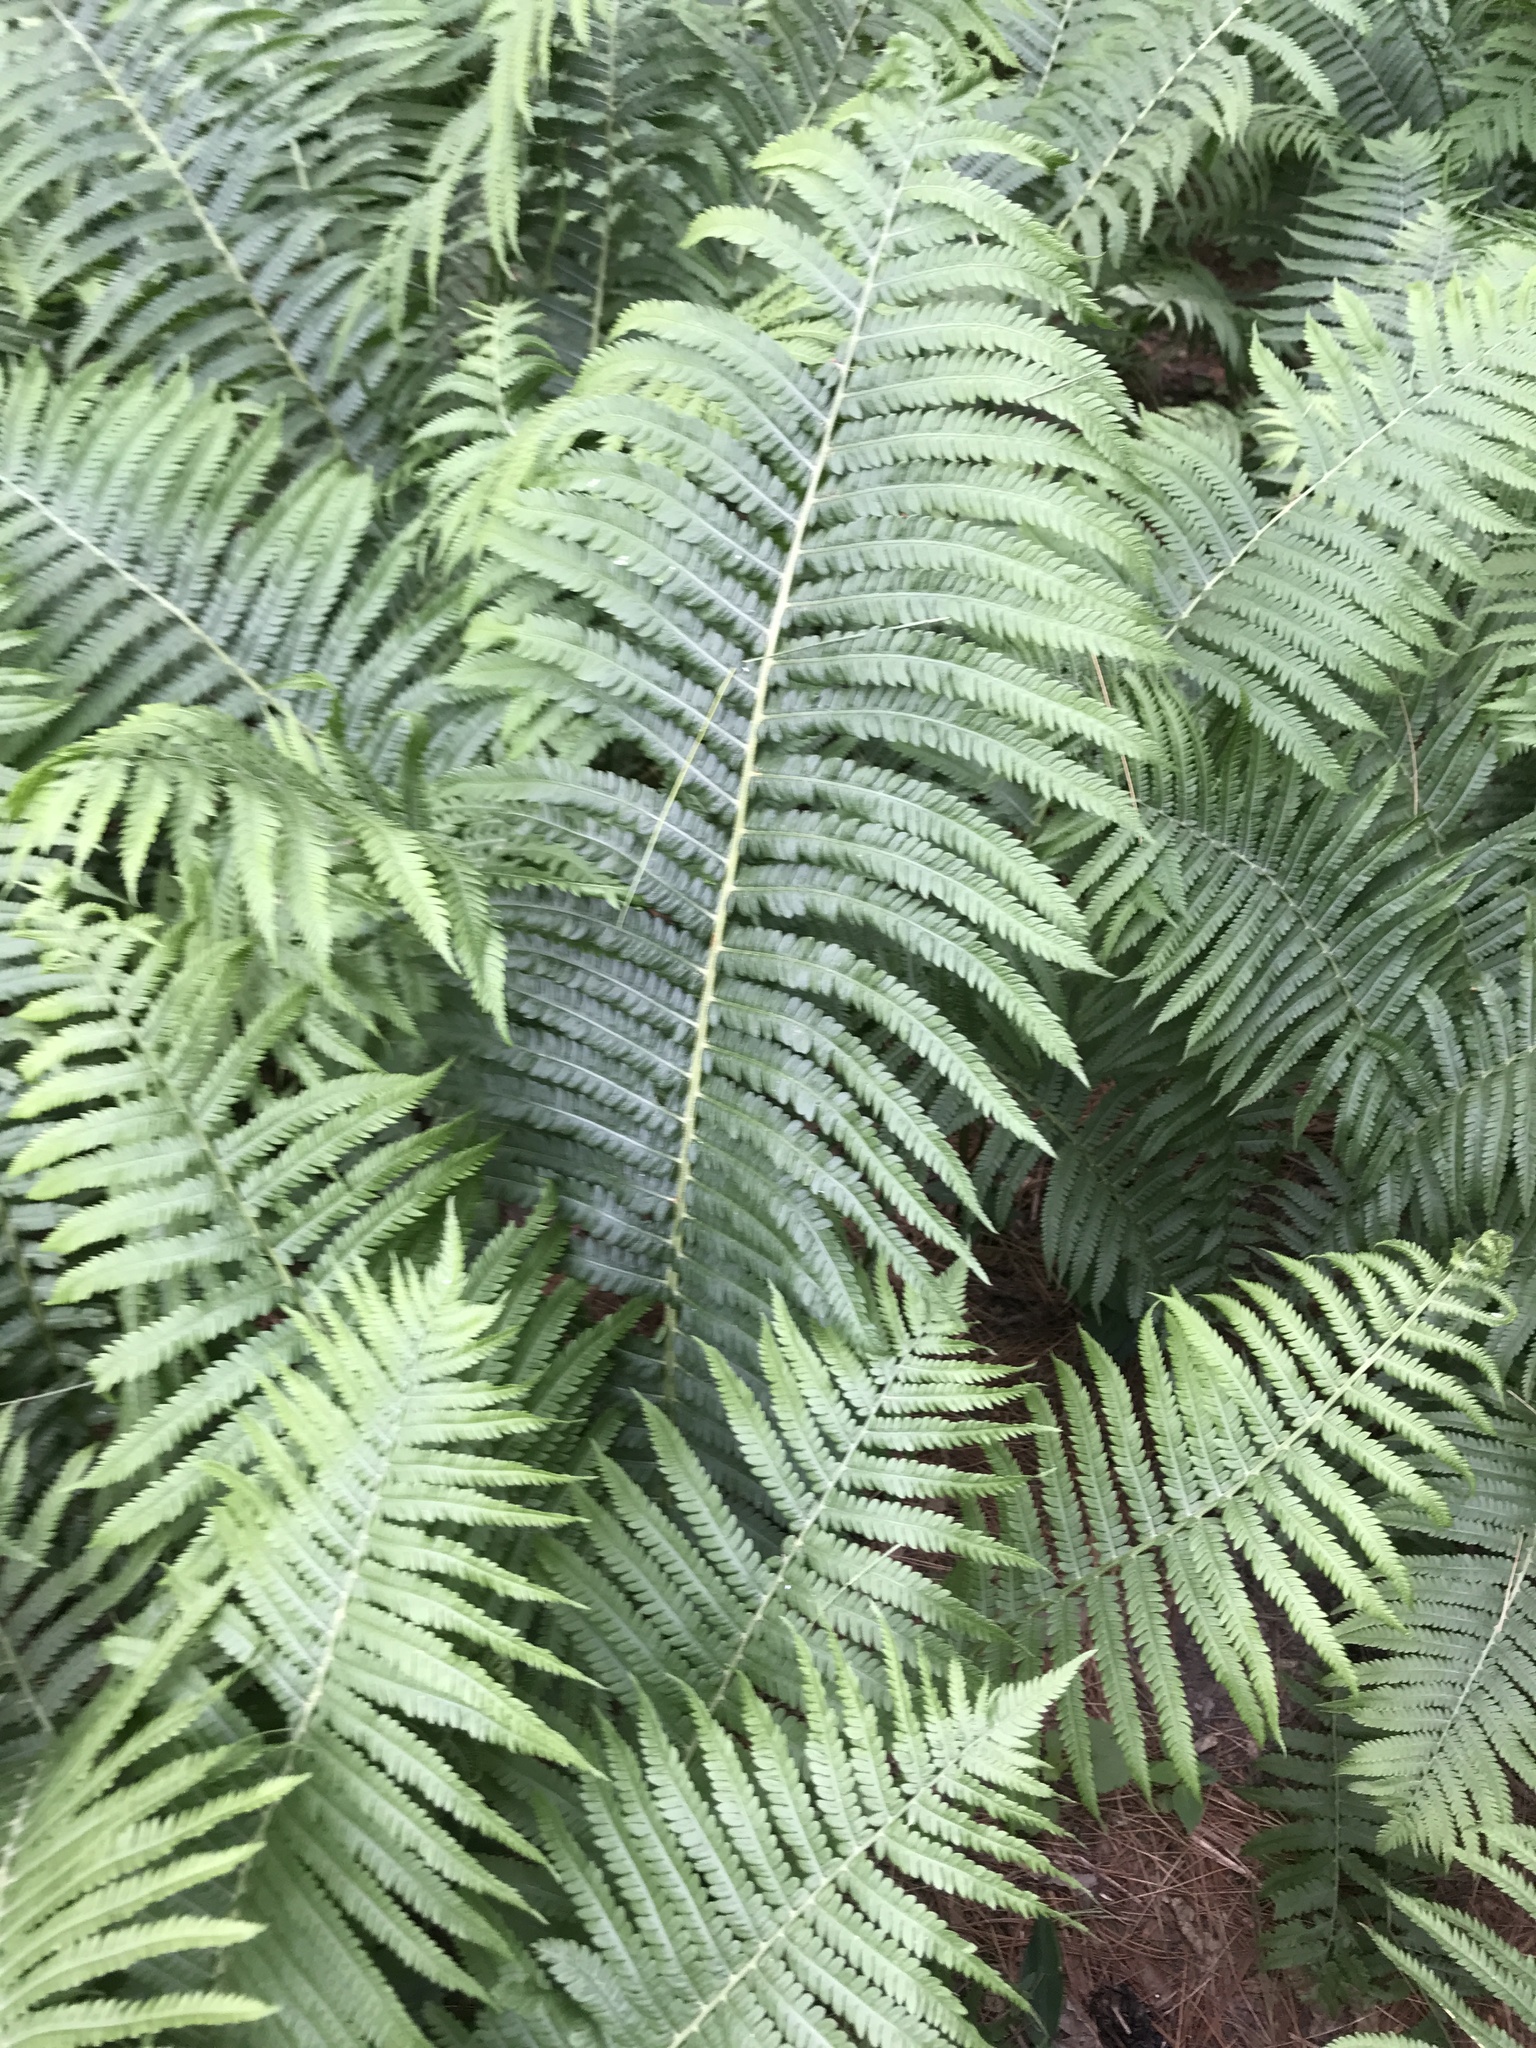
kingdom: Plantae
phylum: Tracheophyta
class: Polypodiopsida
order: Polypodiales
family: Onocleaceae
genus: Matteuccia
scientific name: Matteuccia struthiopteris
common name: Ostrich fern
